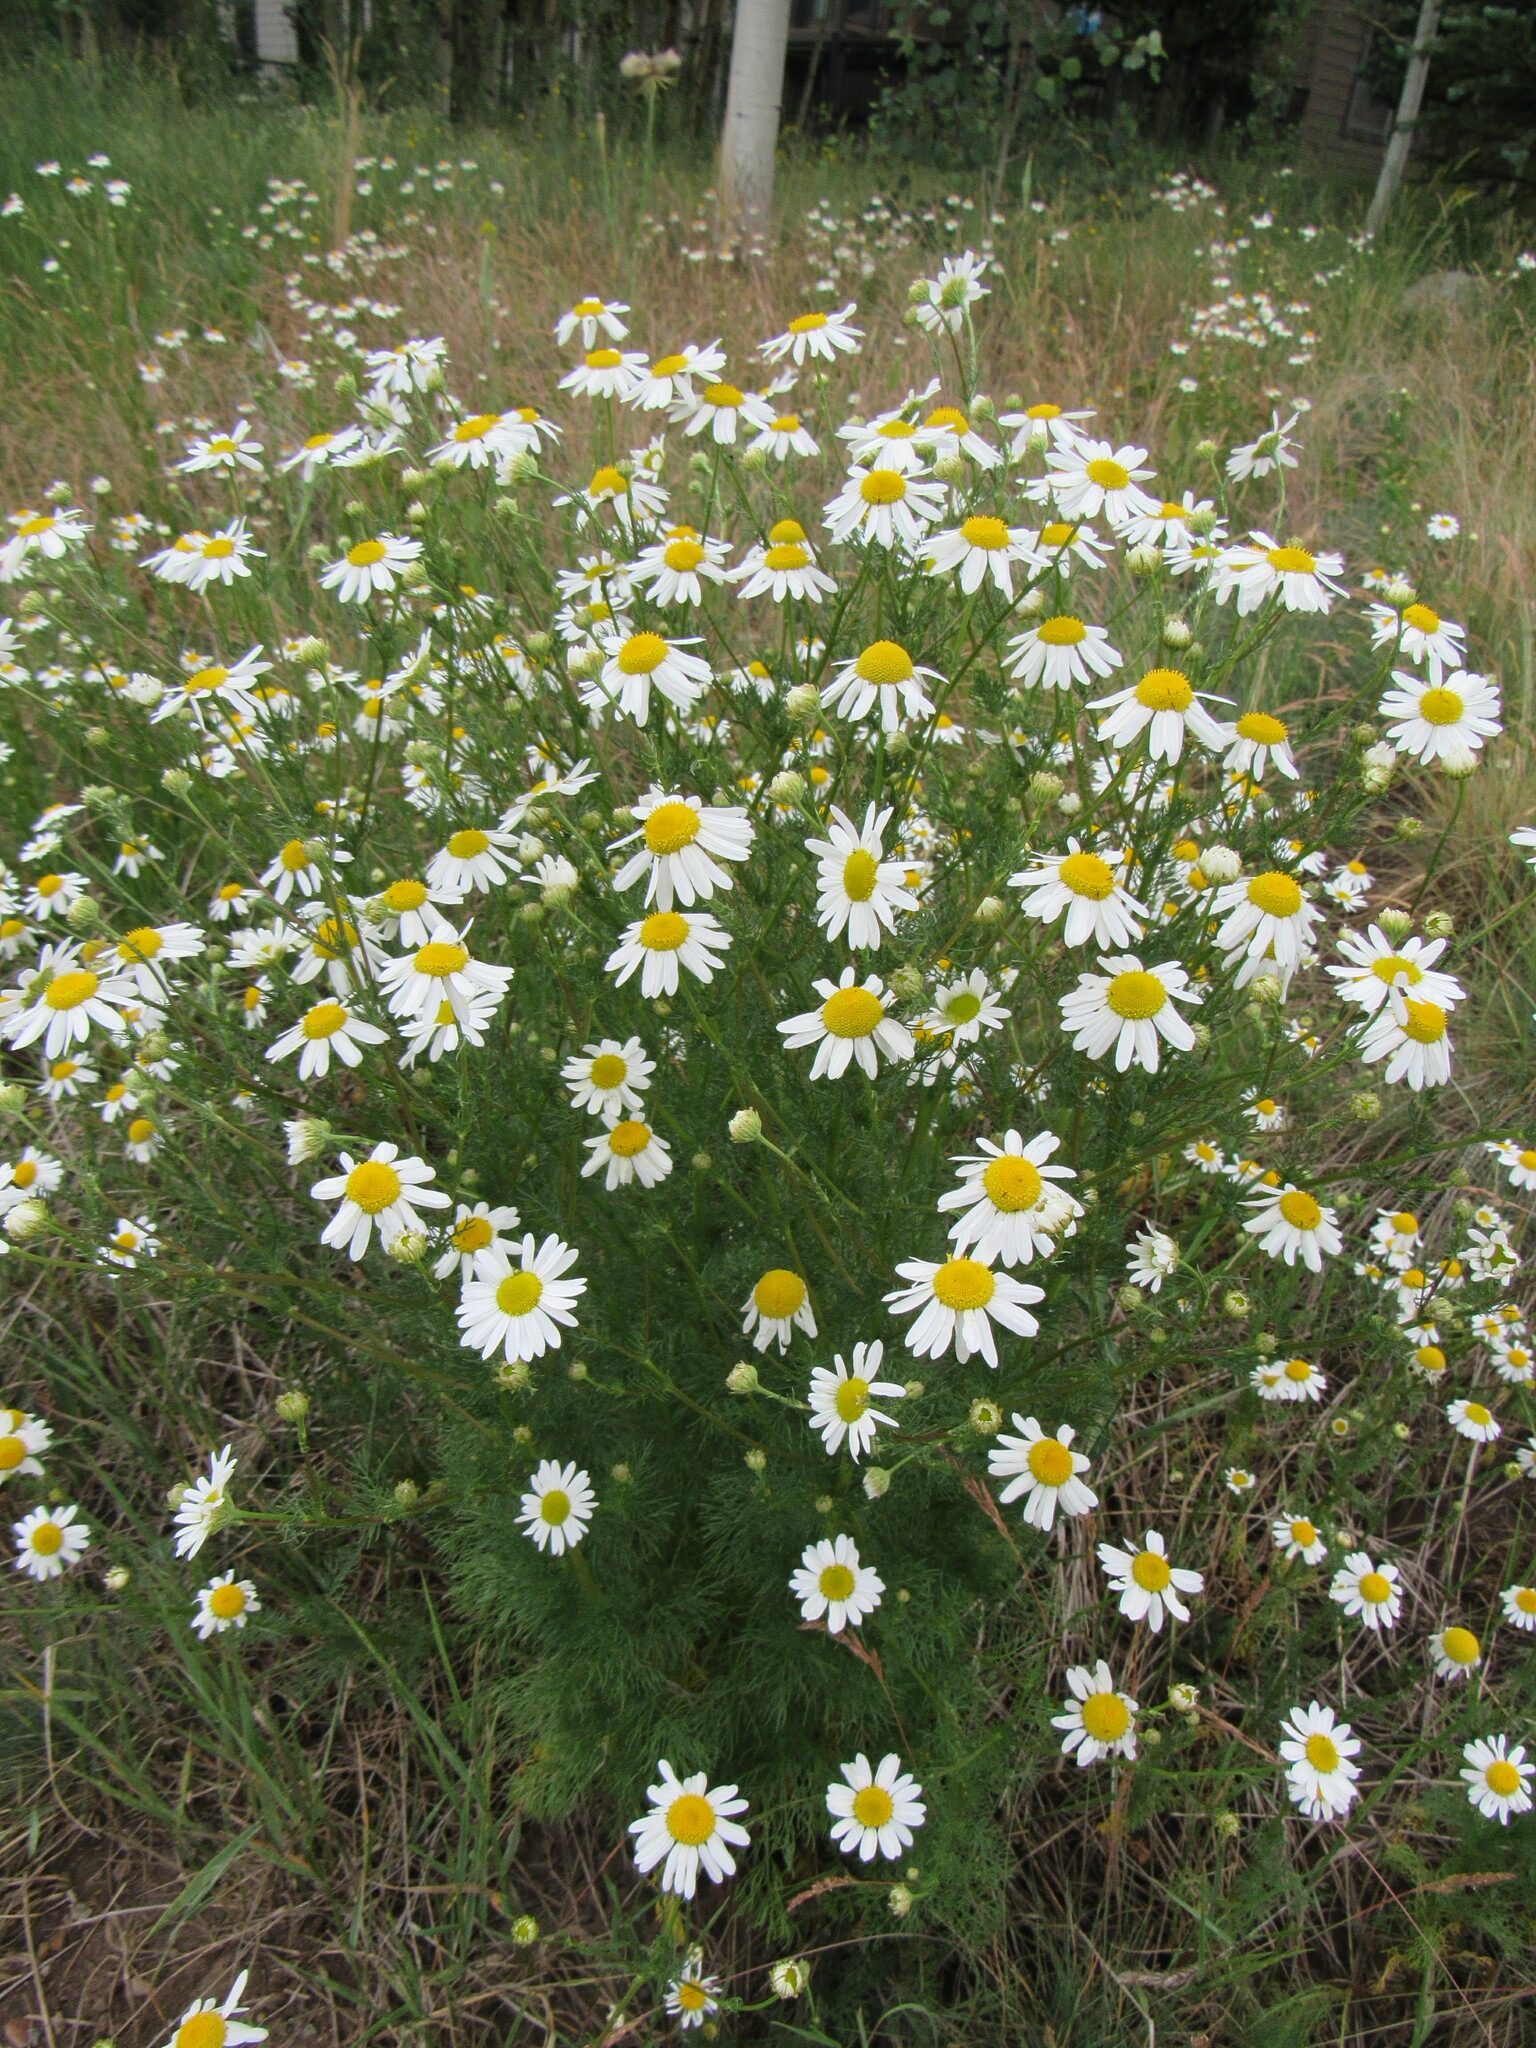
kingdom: Plantae
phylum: Tracheophyta
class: Magnoliopsida
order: Asterales
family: Asteraceae
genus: Tripleurospermum
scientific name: Tripleurospermum inodorum
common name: Scentless mayweed
